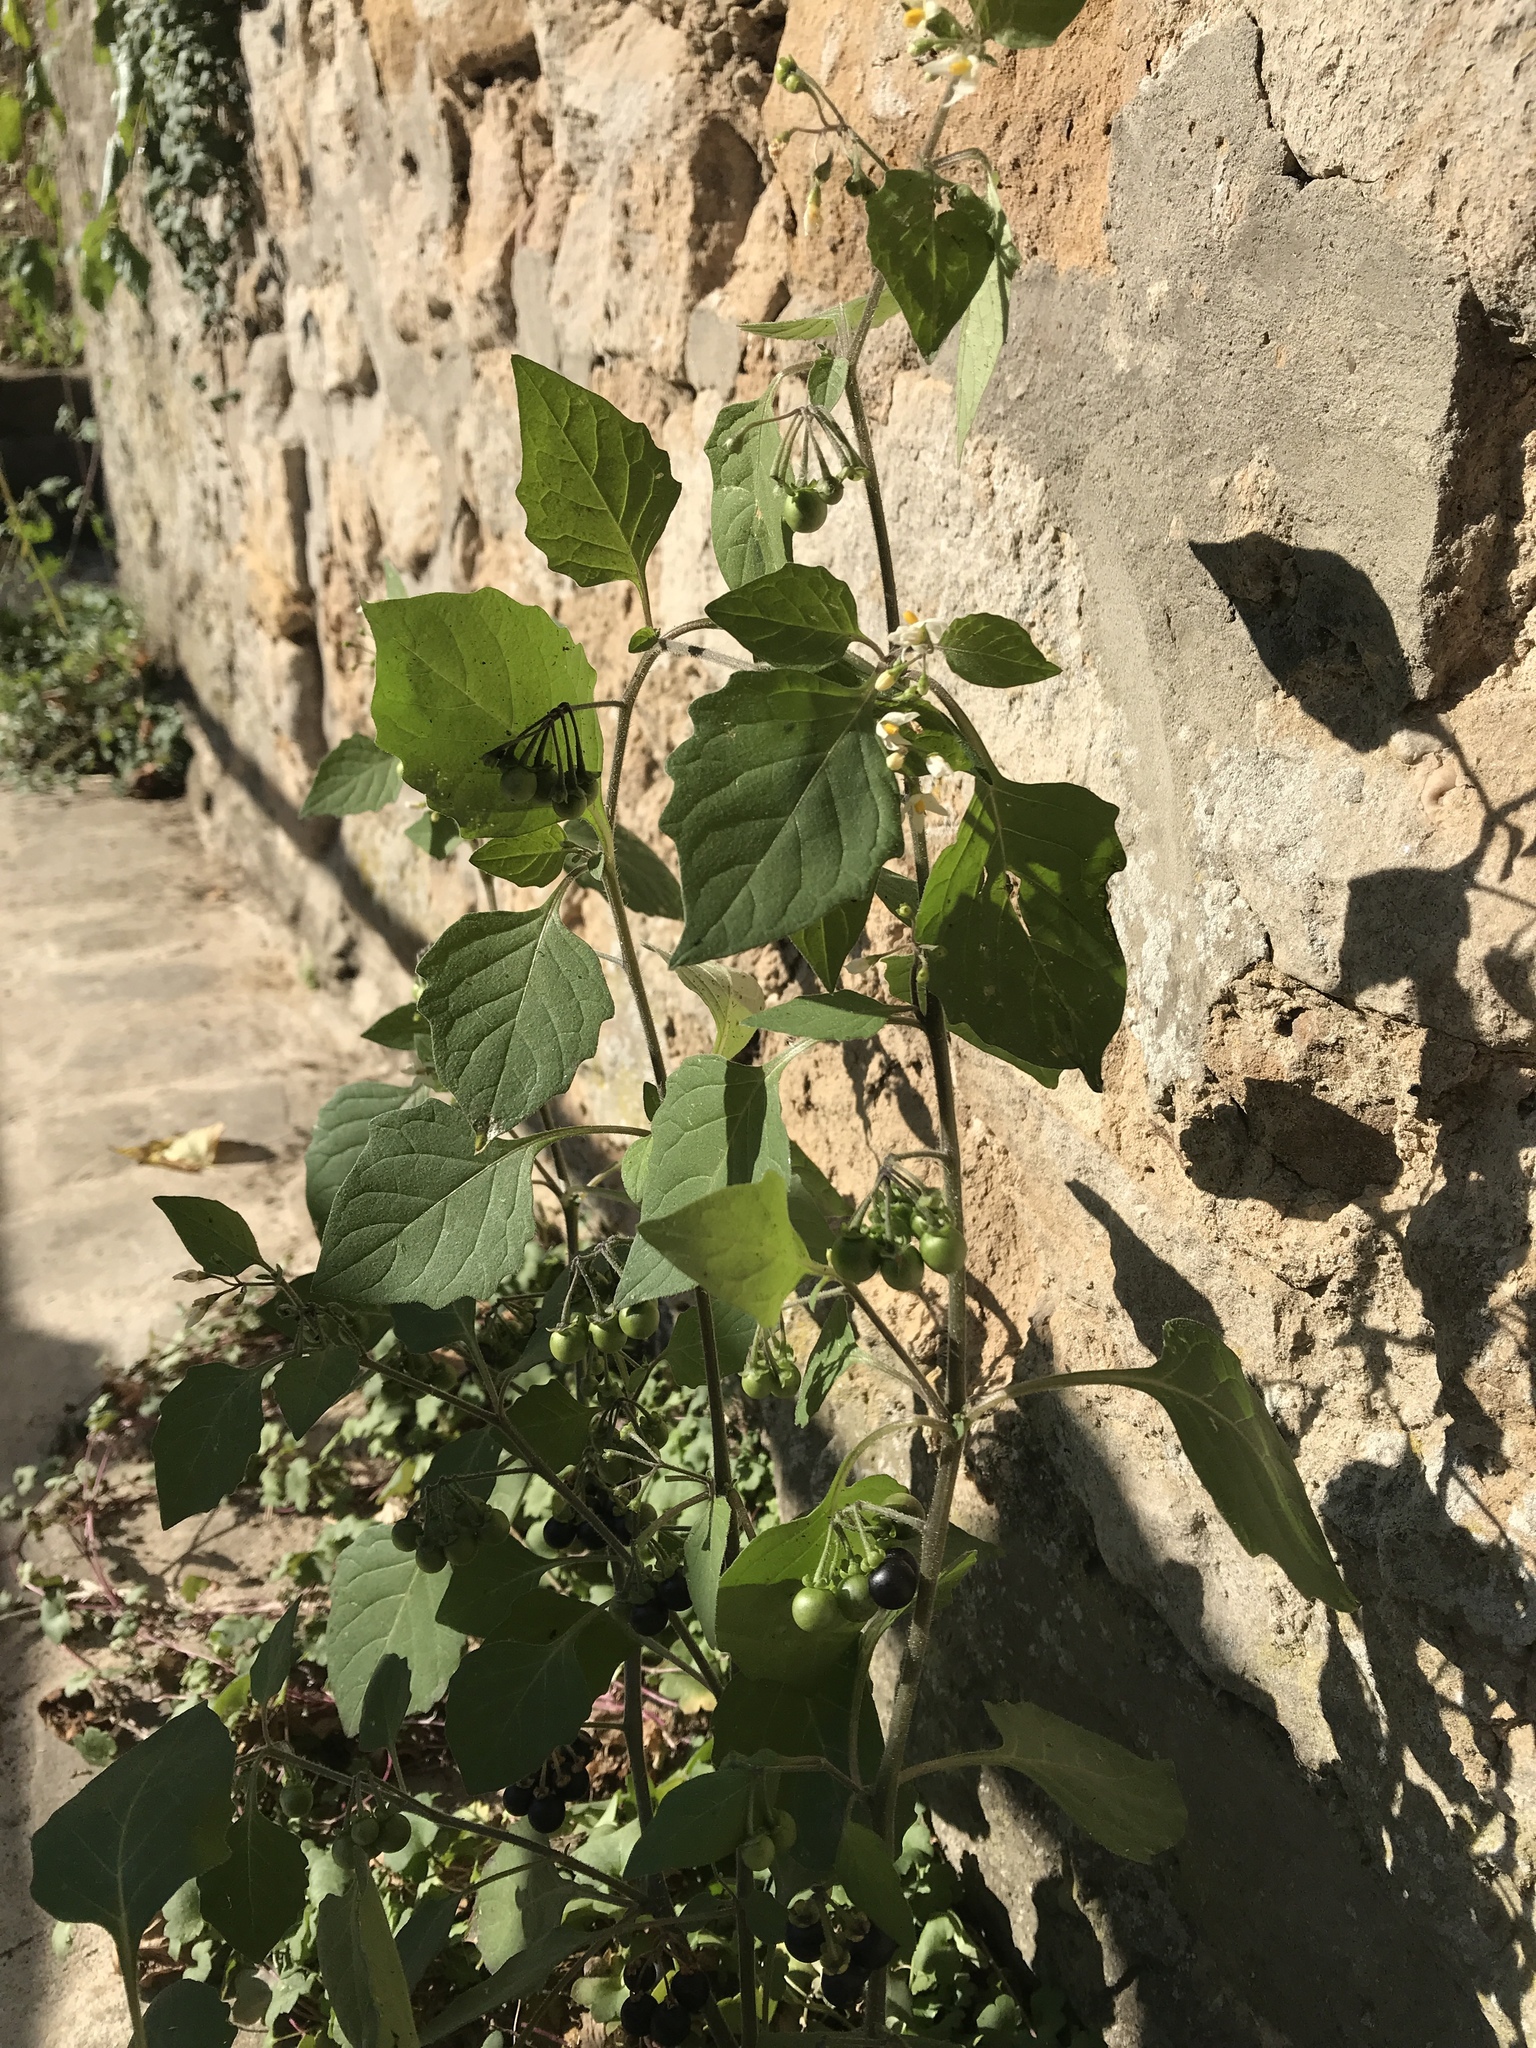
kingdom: Plantae
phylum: Tracheophyta
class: Magnoliopsida
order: Solanales
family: Solanaceae
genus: Solanum
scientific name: Solanum nigrum
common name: Black nightshade
